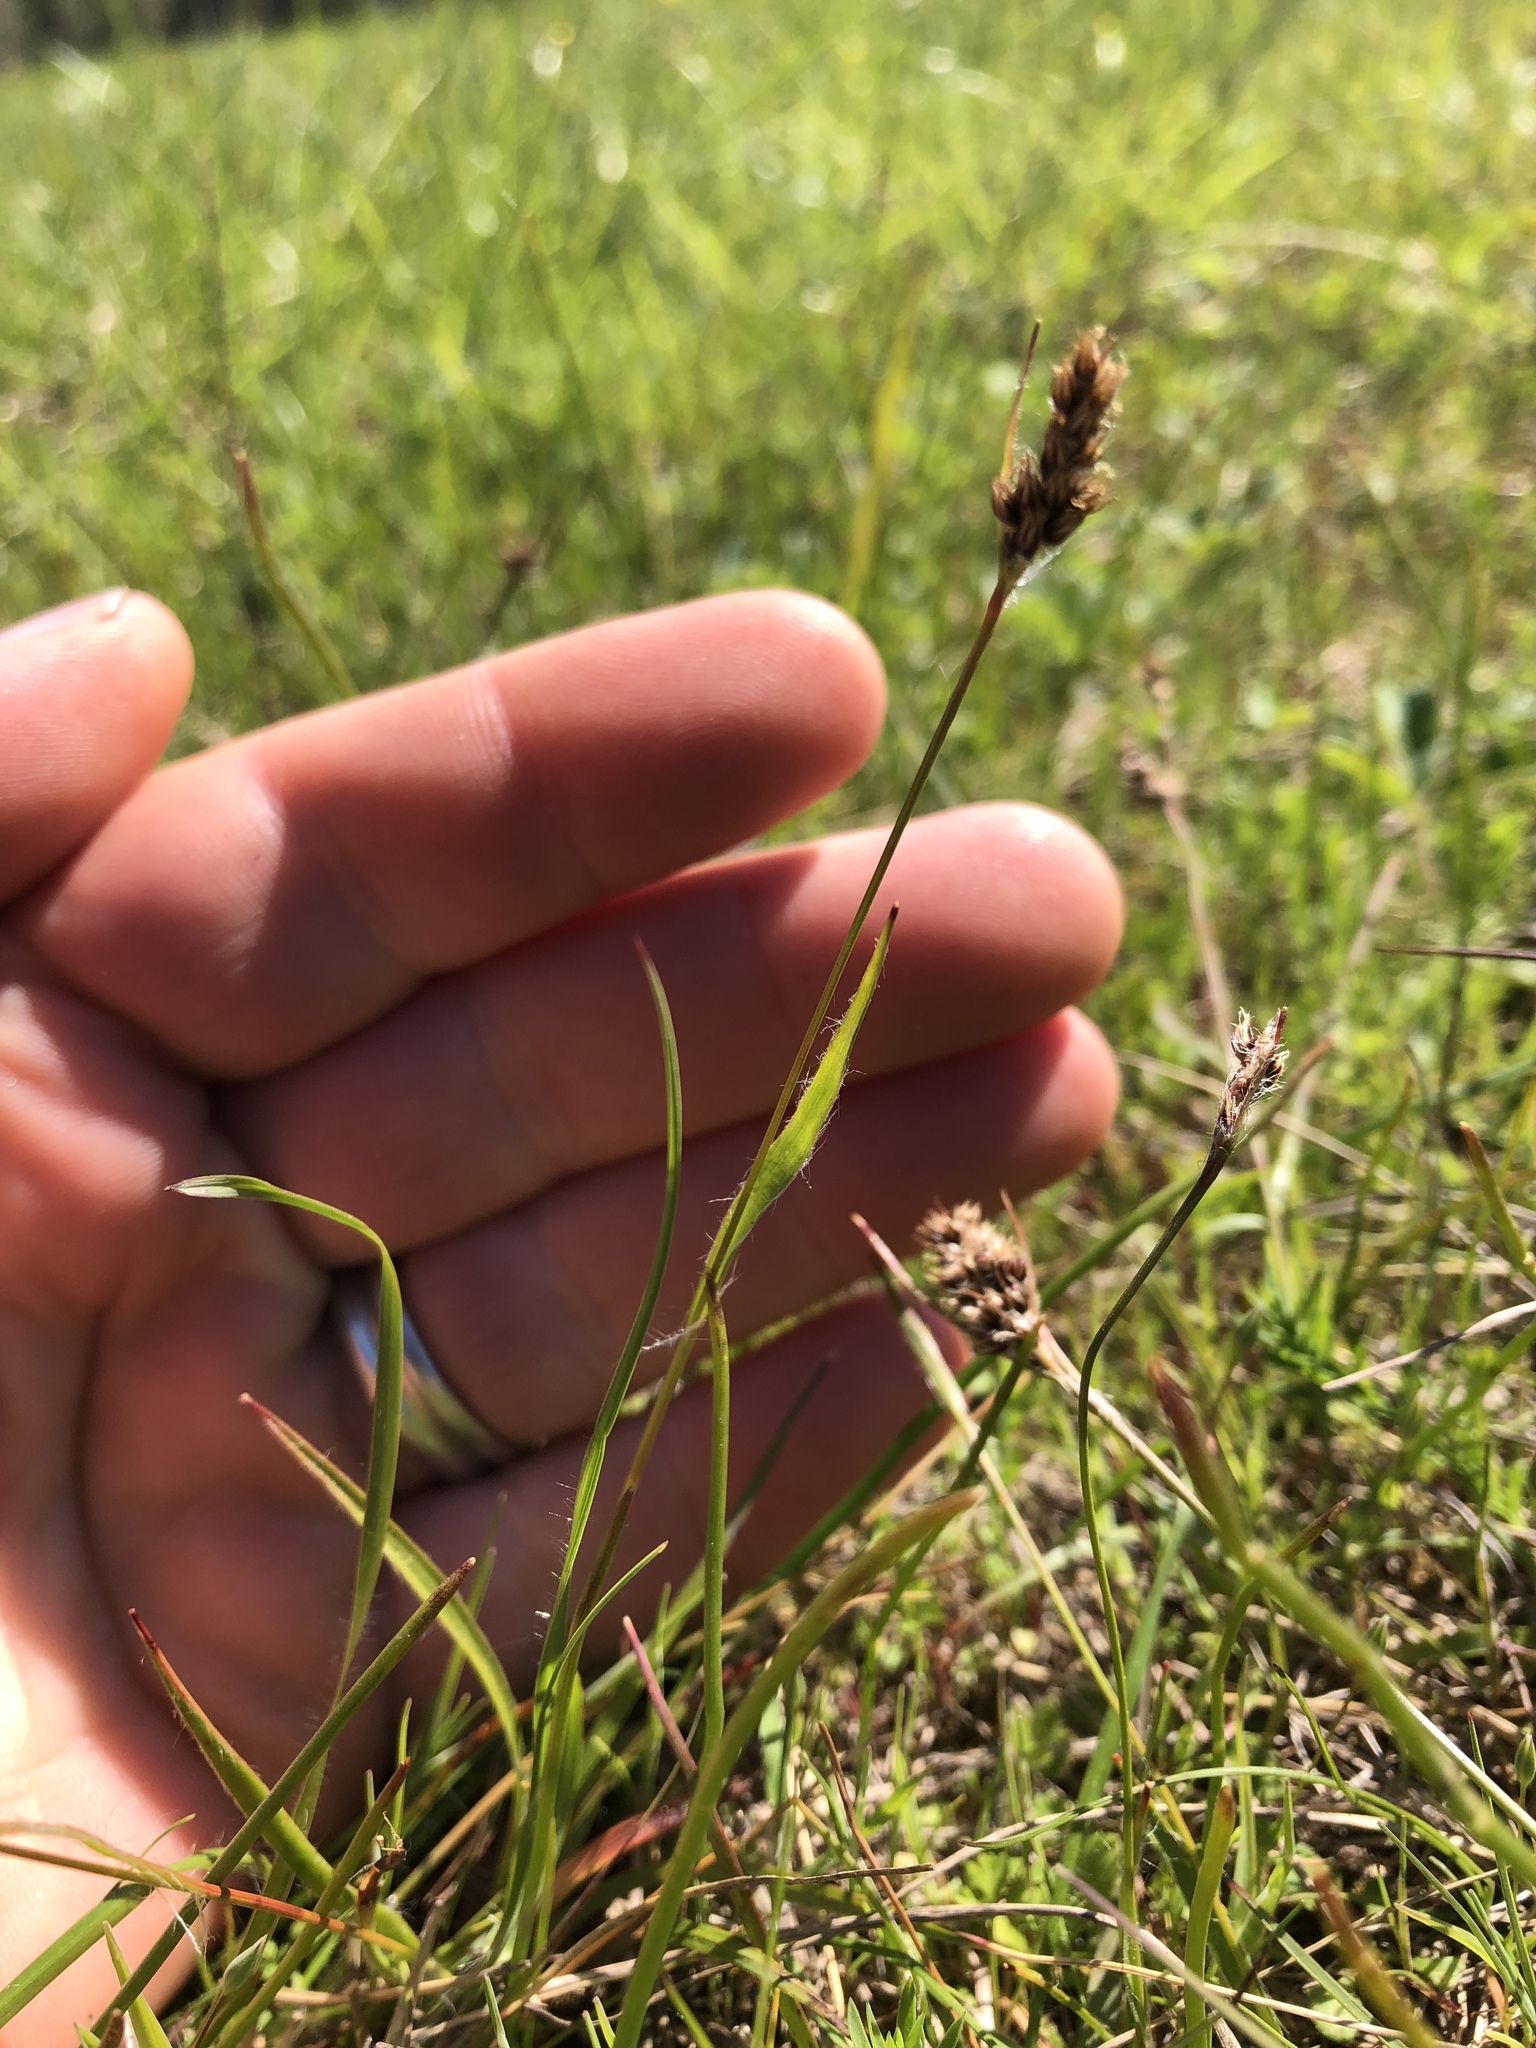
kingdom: Plantae
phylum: Tracheophyta
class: Liliopsida
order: Poales
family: Juncaceae
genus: Luzula
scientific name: Luzula comosa
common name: Pacific woodrush
